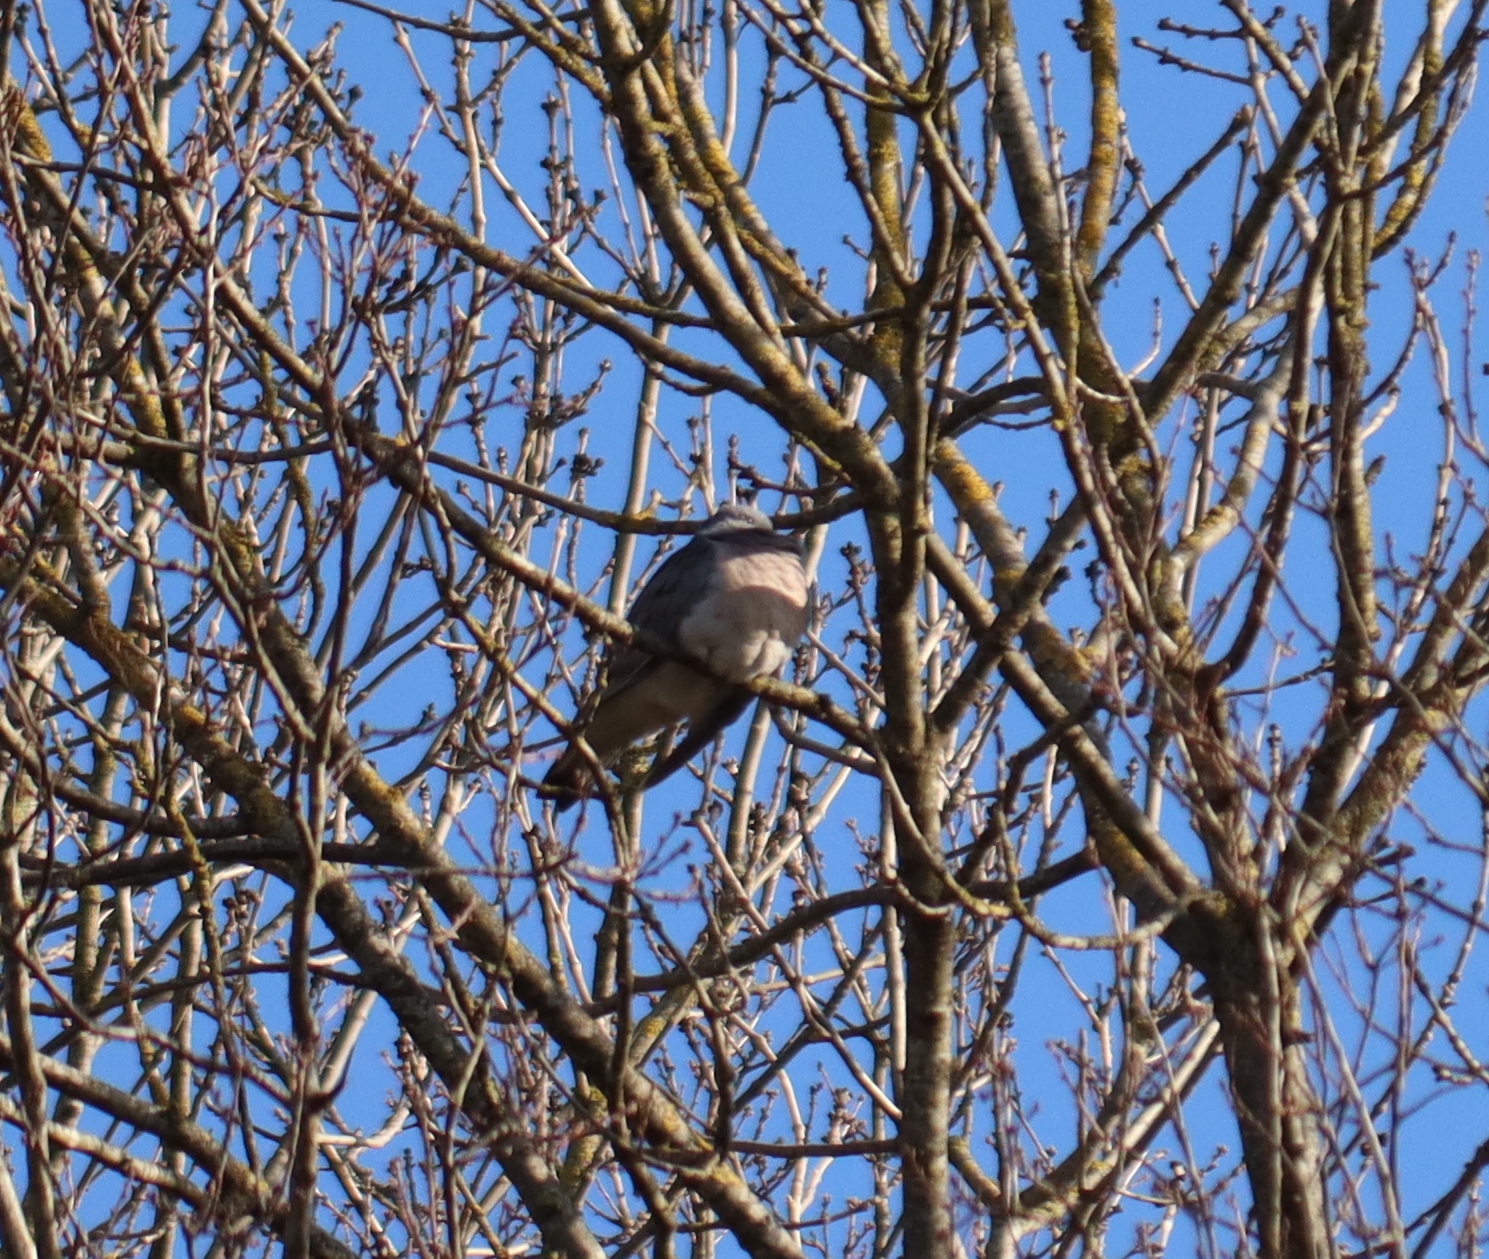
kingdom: Animalia
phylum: Chordata
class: Aves
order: Columbiformes
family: Columbidae
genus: Columba
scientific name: Columba palumbus
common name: Common wood pigeon
